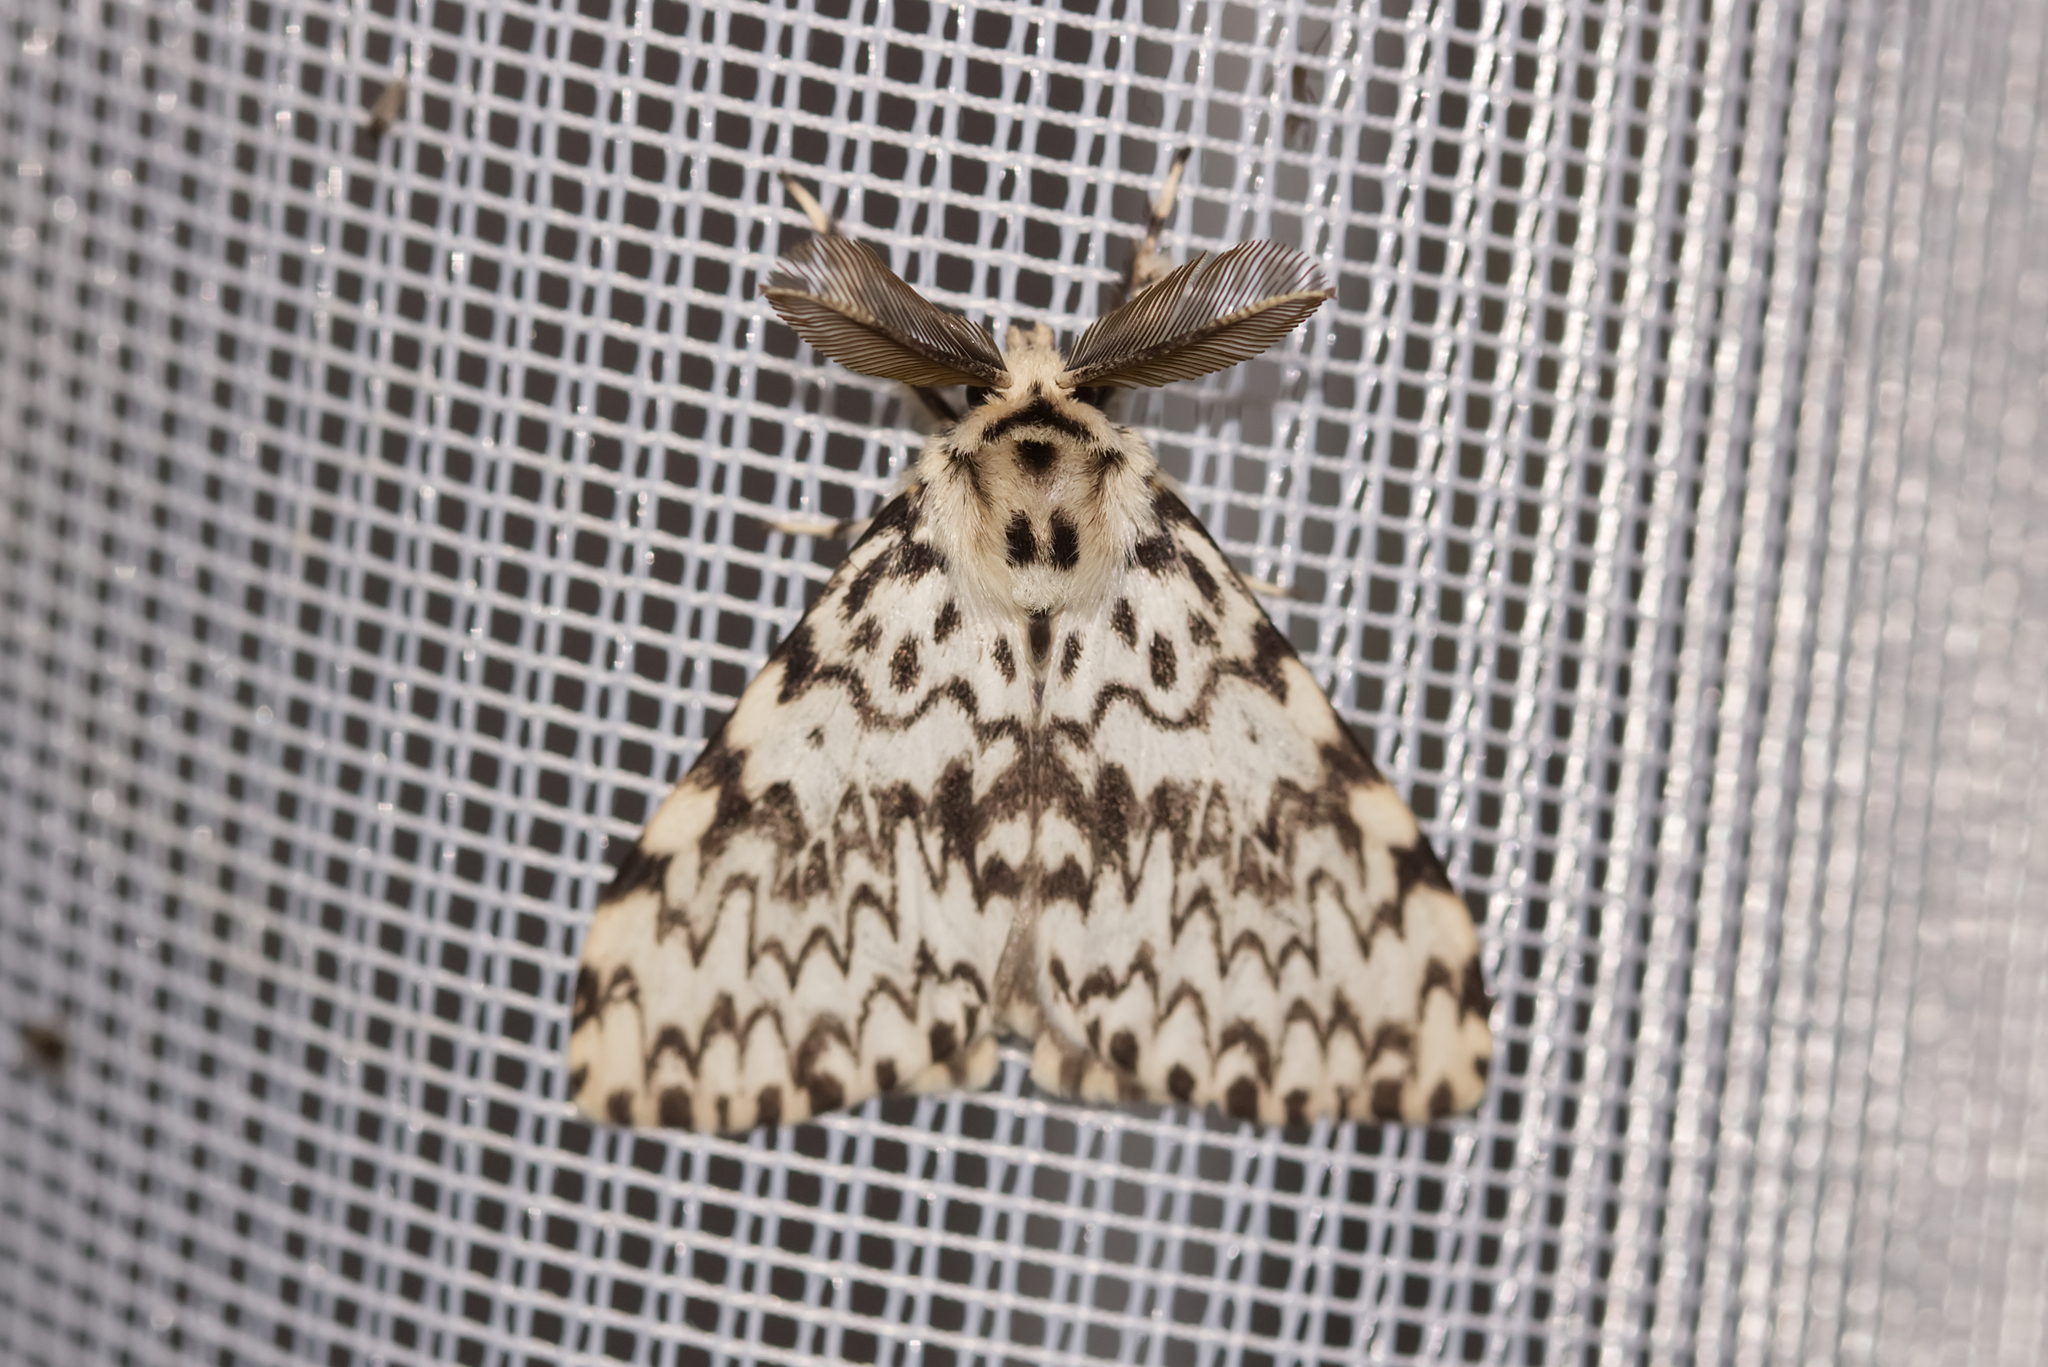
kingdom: Animalia
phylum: Arthropoda
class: Insecta
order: Lepidoptera
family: Erebidae
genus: Lymantria
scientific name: Lymantria monacha
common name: Black arches
